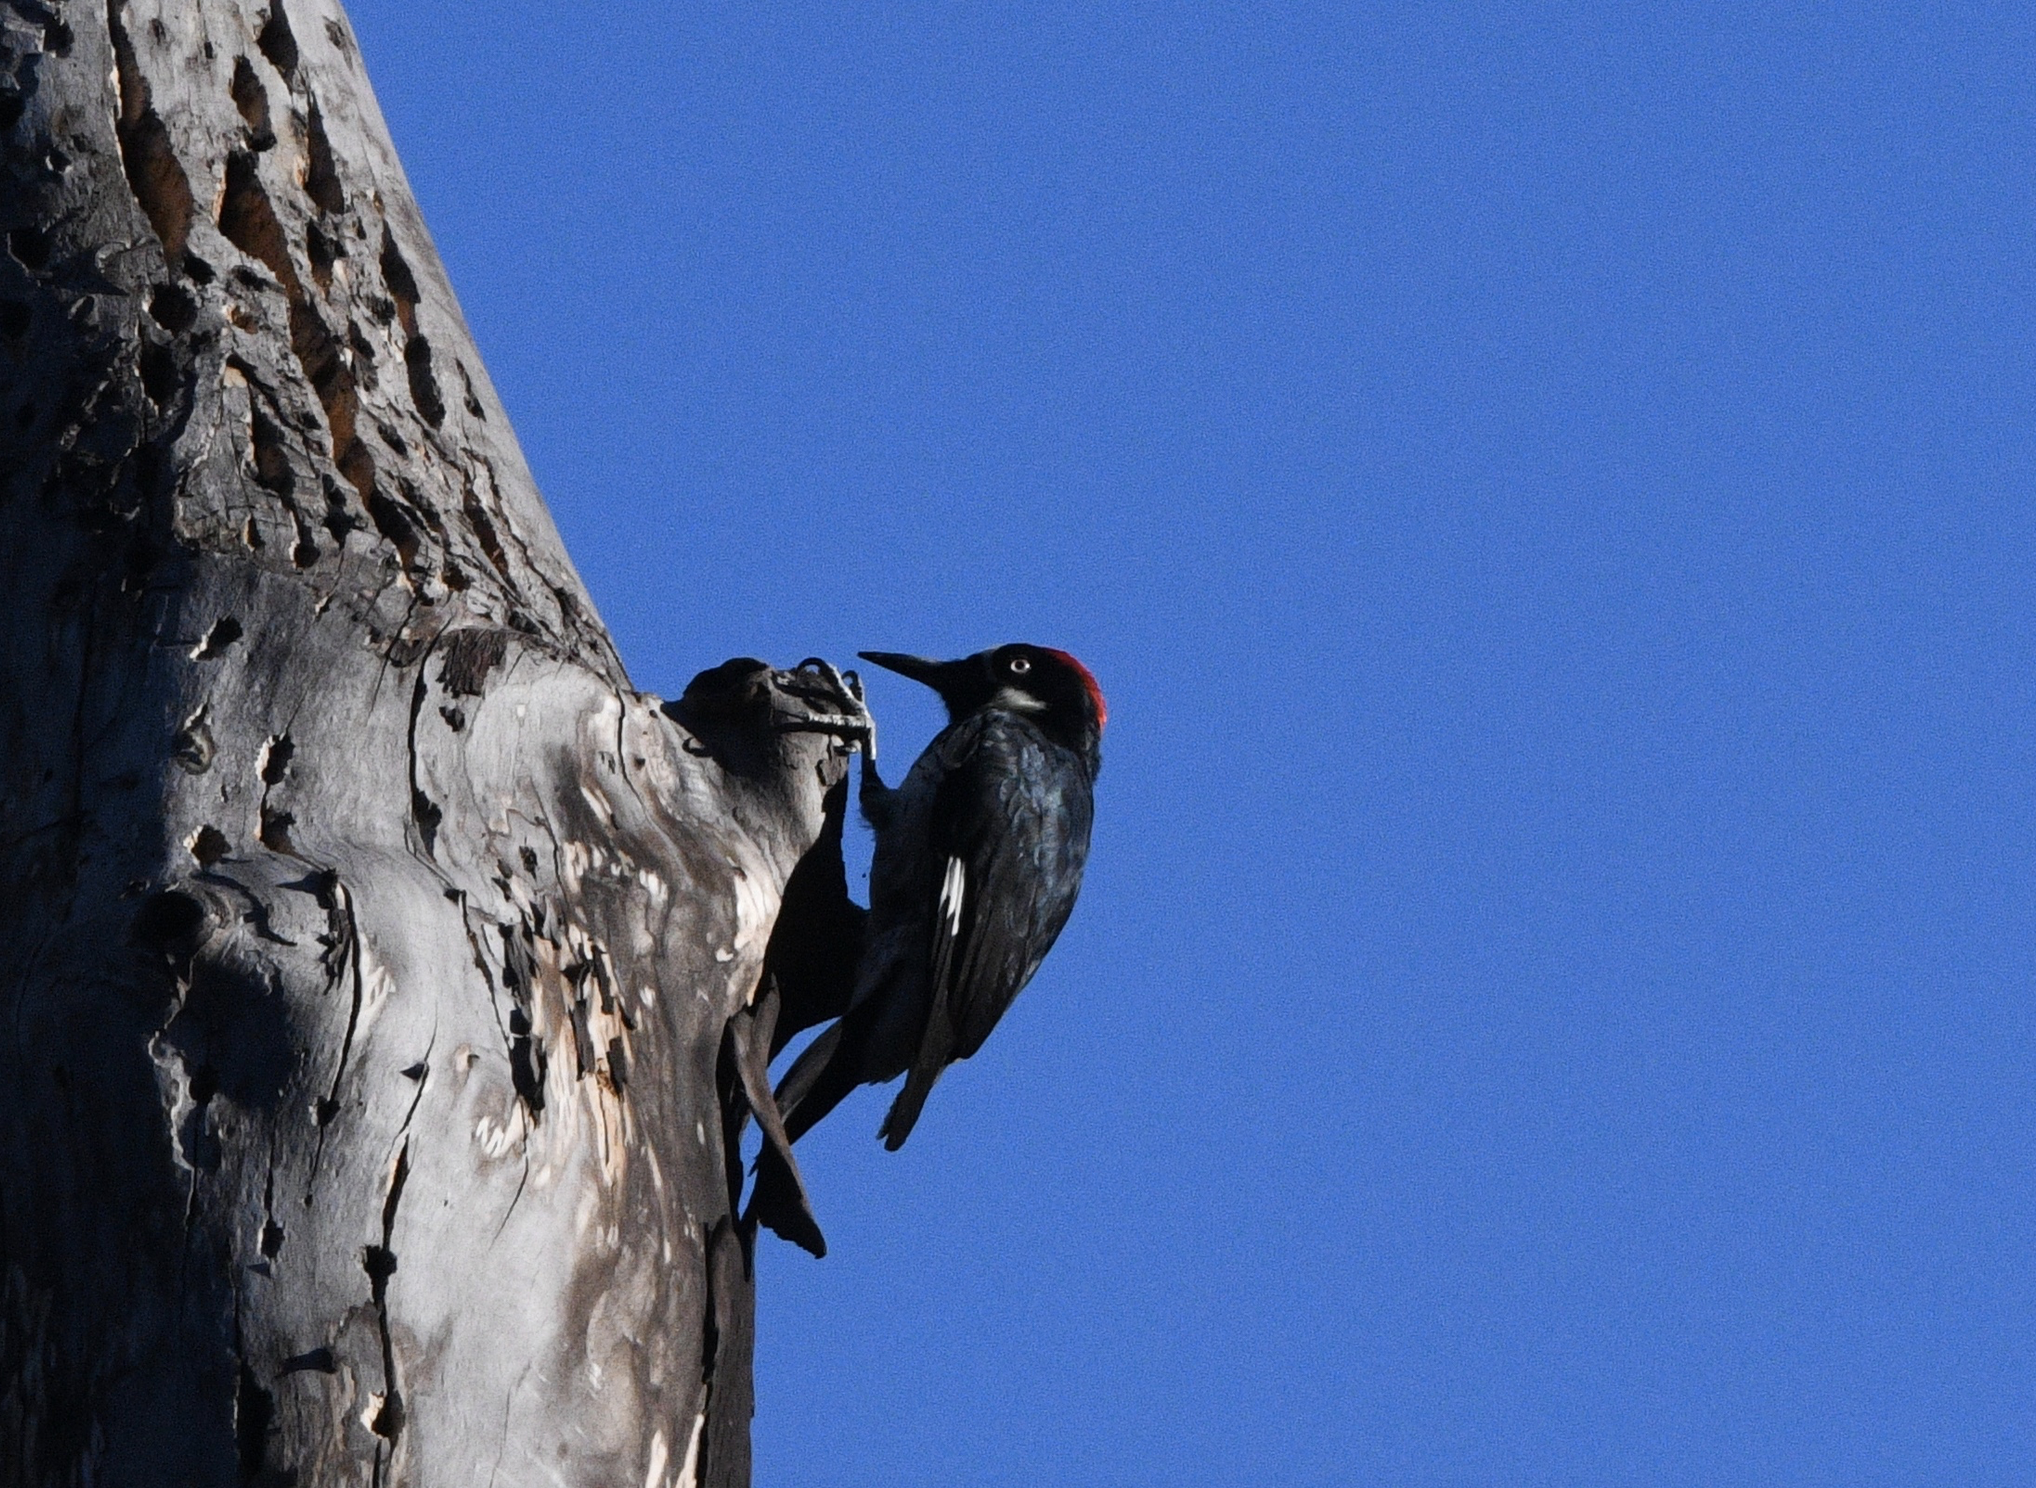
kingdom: Animalia
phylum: Chordata
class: Aves
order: Piciformes
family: Picidae
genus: Melanerpes
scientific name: Melanerpes formicivorus
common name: Acorn woodpecker
